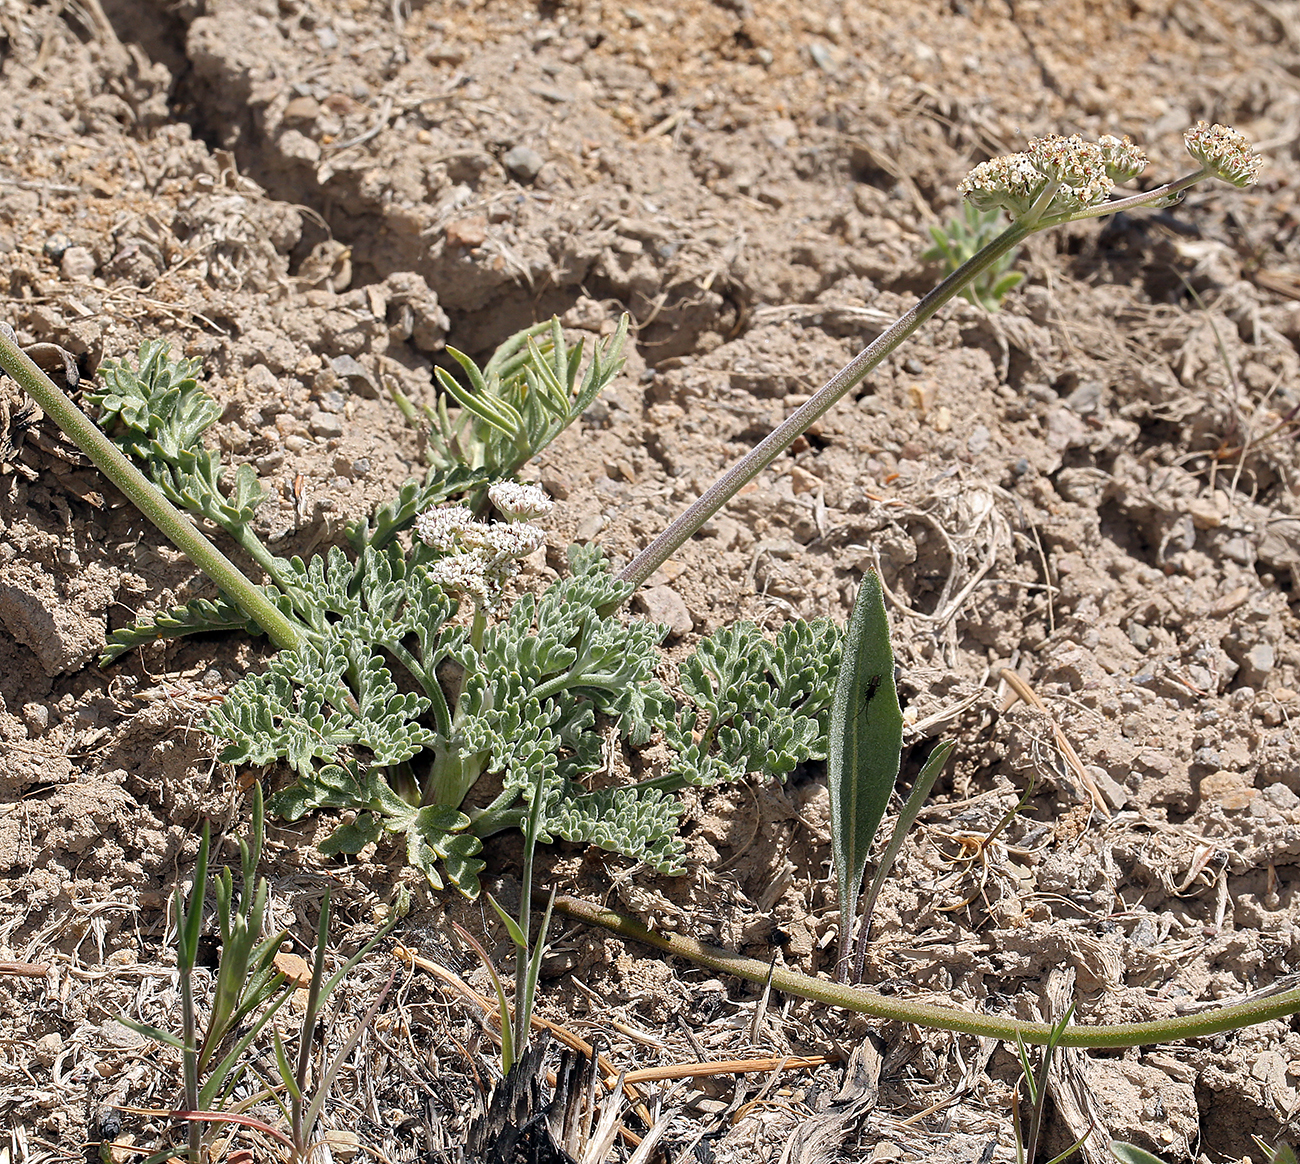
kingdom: Plantae
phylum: Tracheophyta
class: Magnoliopsida
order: Apiales
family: Apiaceae
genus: Lomatium
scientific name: Lomatium nevadense
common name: Nevada lomatium
